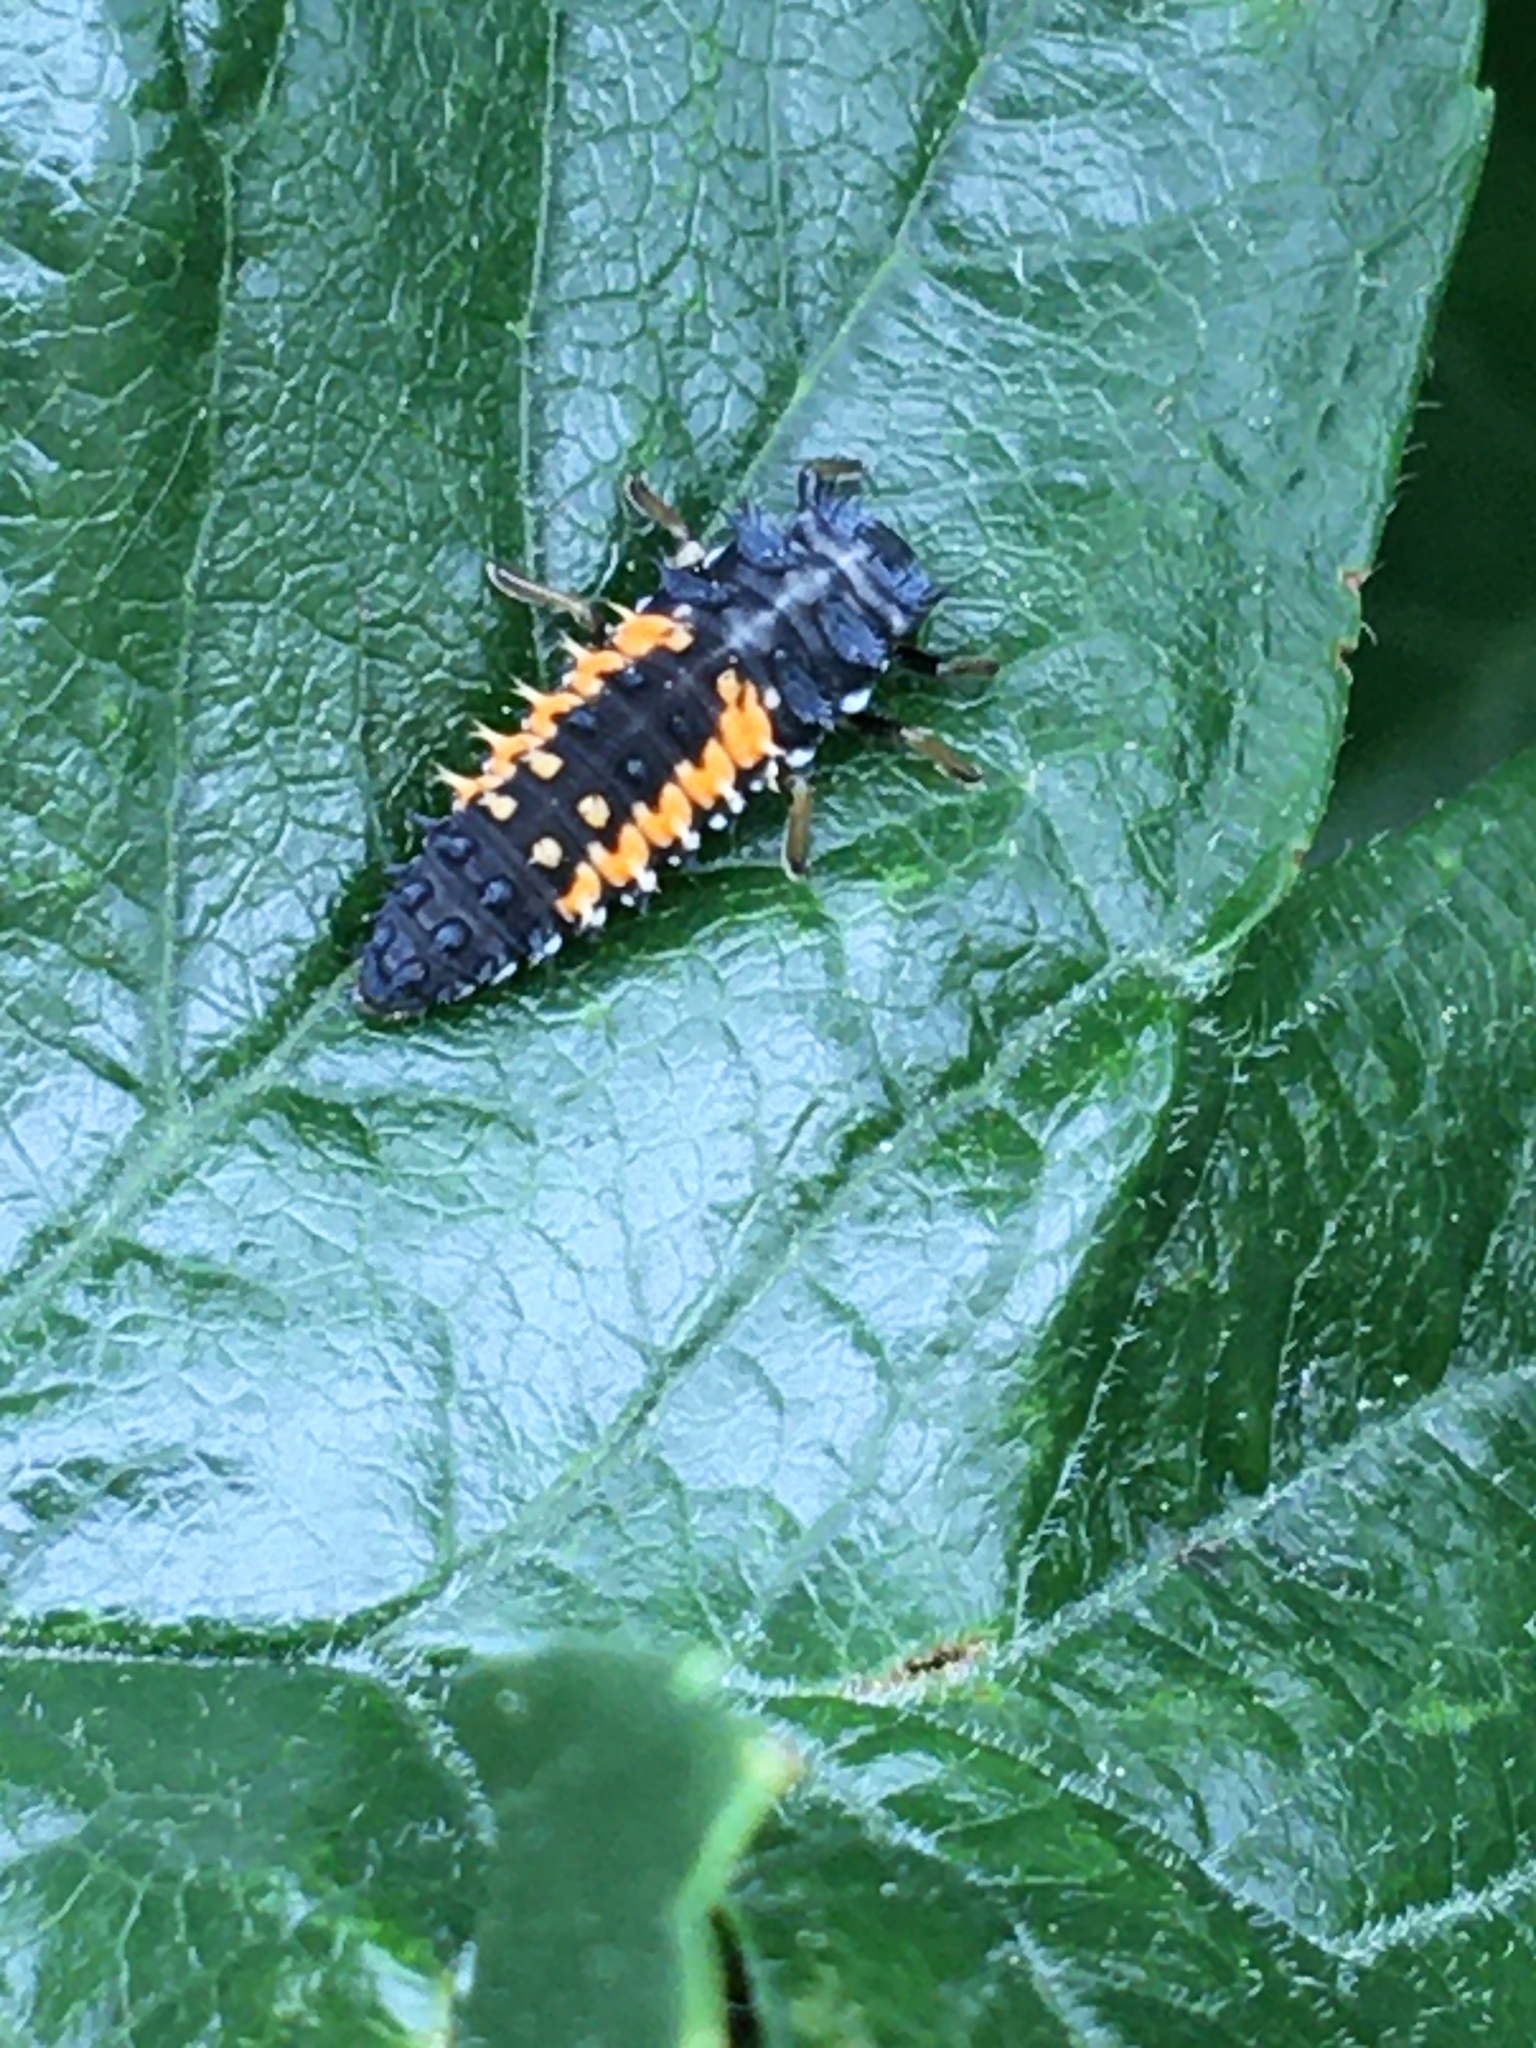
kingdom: Animalia
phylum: Arthropoda
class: Insecta
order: Coleoptera
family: Coccinellidae
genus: Harmonia
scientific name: Harmonia axyridis
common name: Harlequin ladybird
